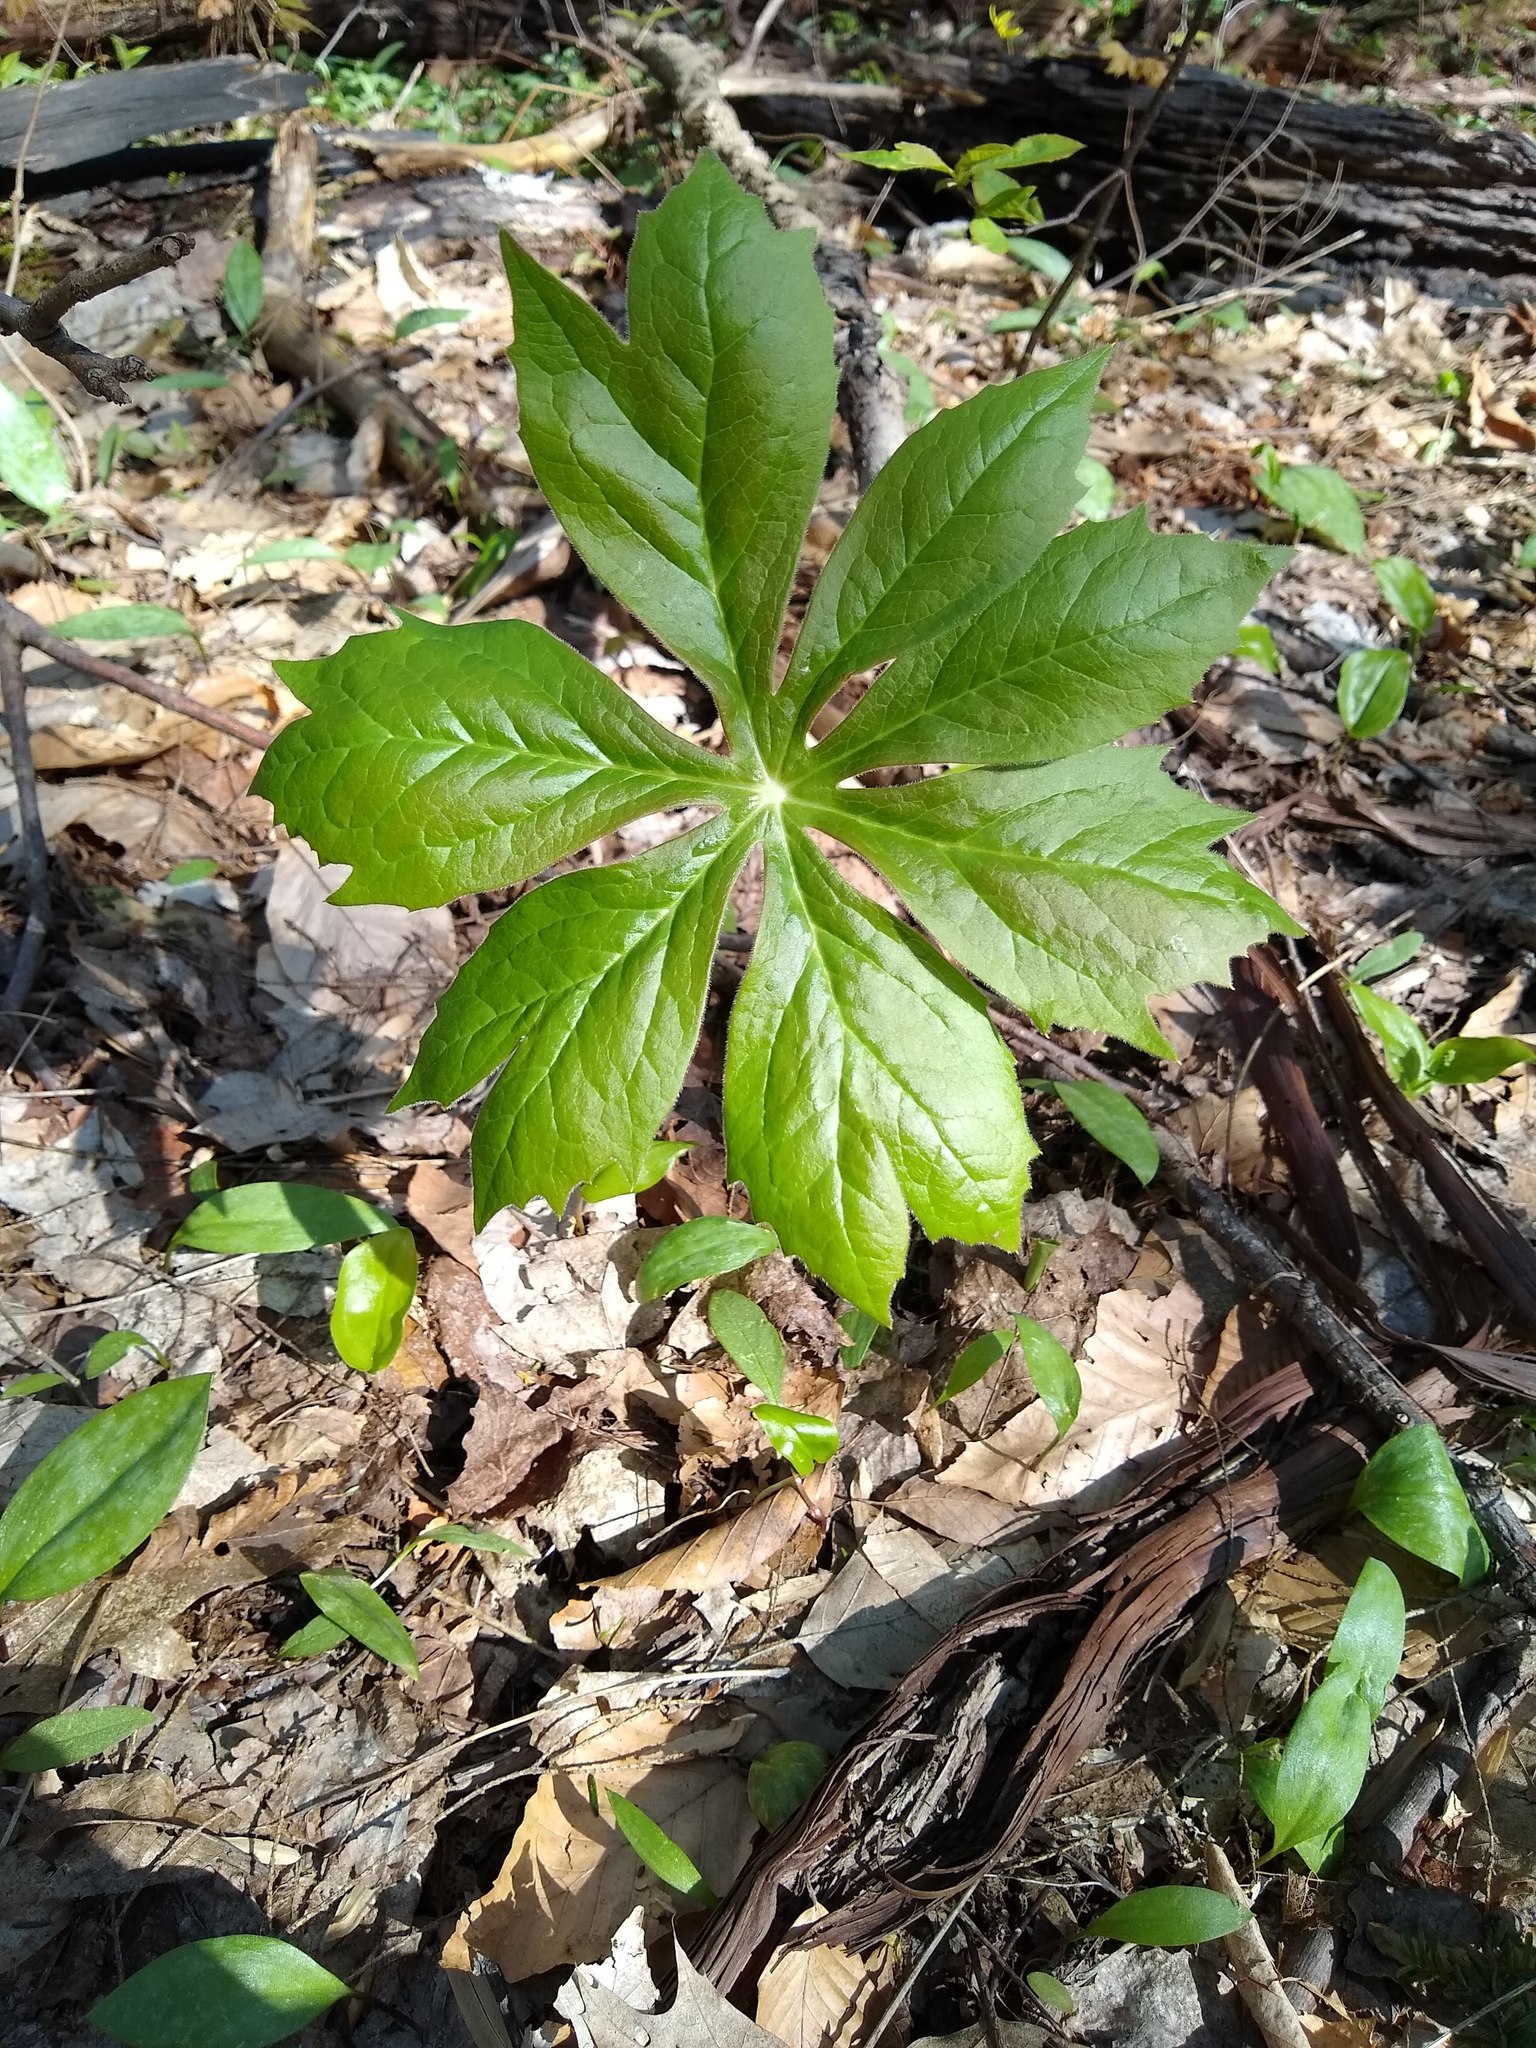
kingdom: Plantae
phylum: Tracheophyta
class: Magnoliopsida
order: Ranunculales
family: Berberidaceae
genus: Podophyllum
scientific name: Podophyllum peltatum
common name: Wild mandrake
